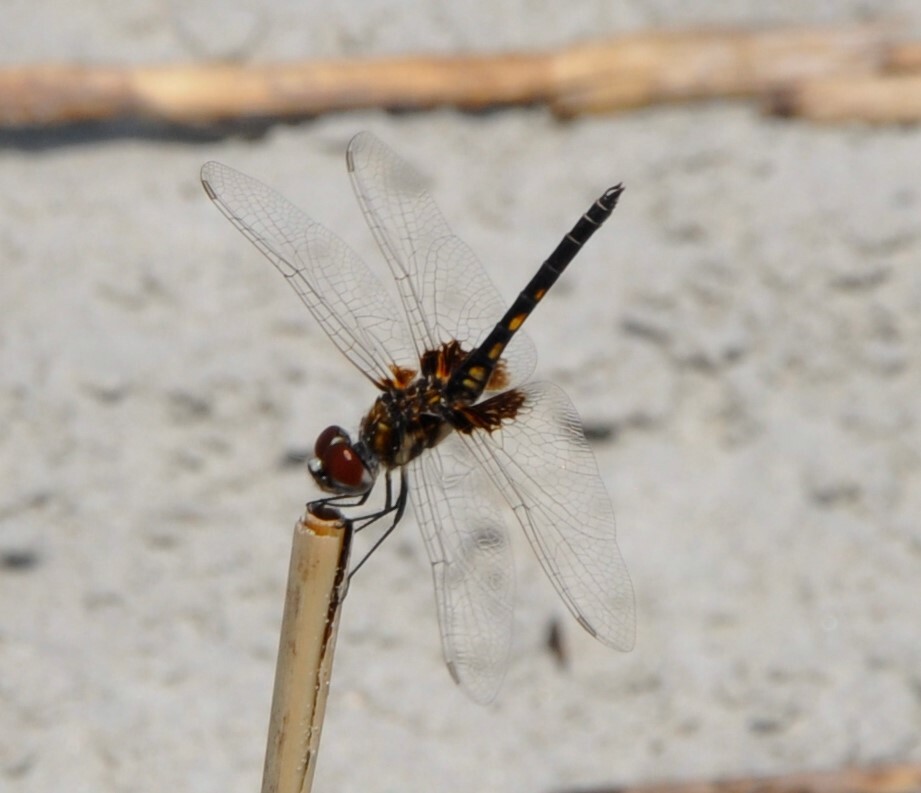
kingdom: Animalia
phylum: Arthropoda
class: Insecta
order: Odonata
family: Libellulidae
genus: Macrodiplax
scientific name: Macrodiplax balteata
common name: Marl pennant
